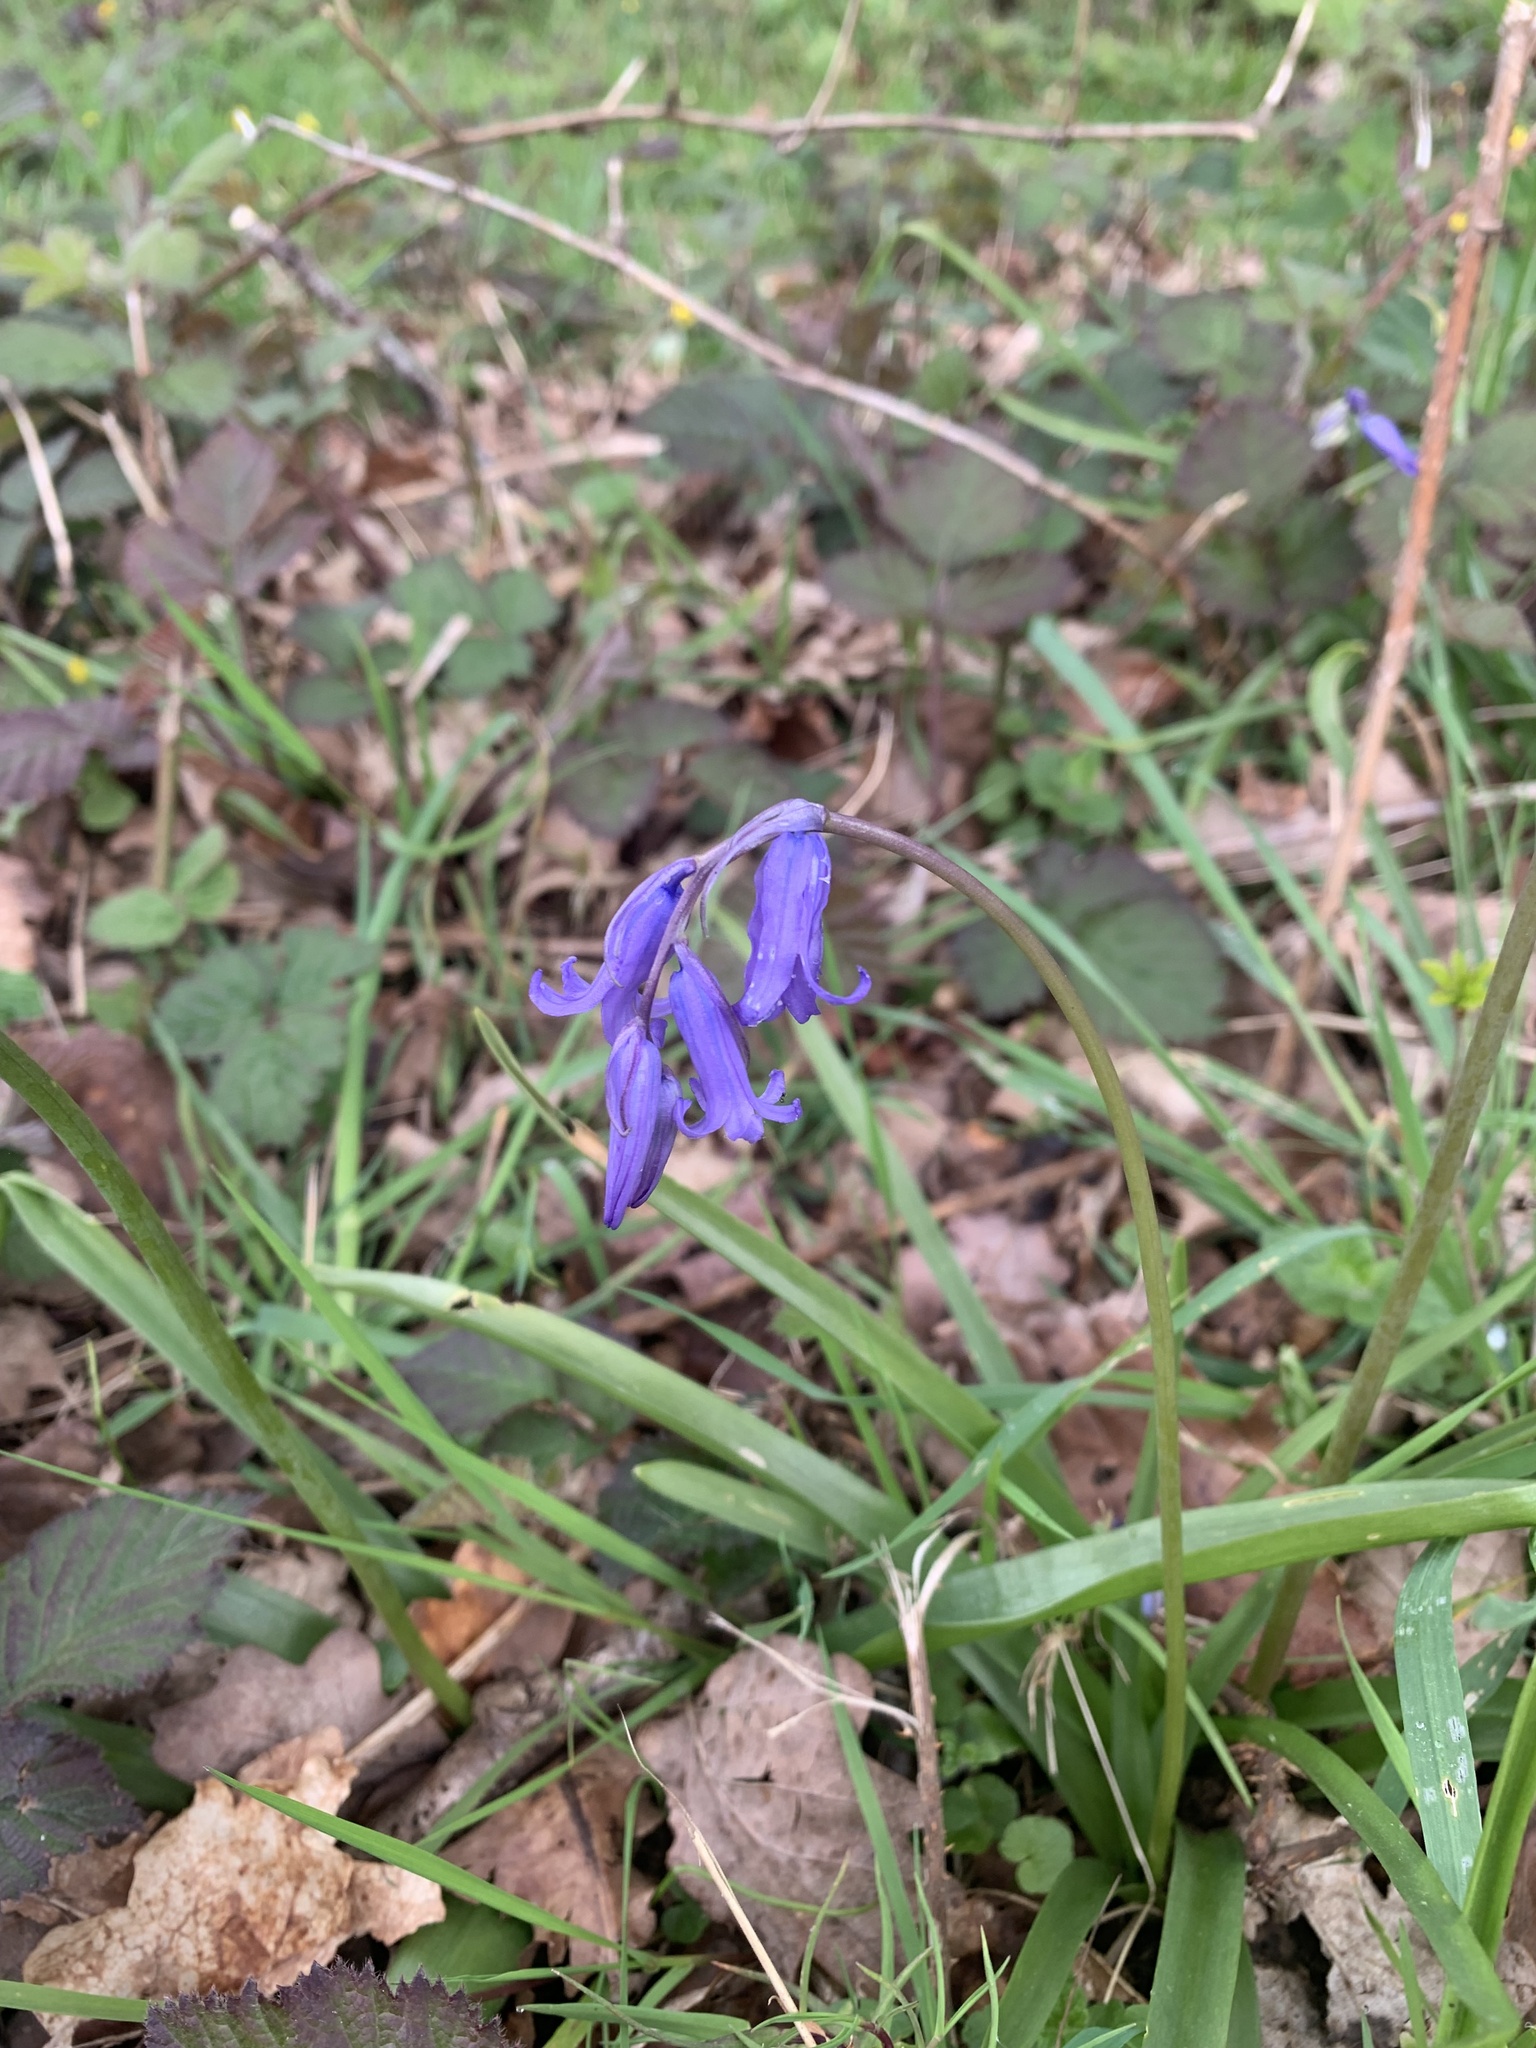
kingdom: Plantae
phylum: Tracheophyta
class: Liliopsida
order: Asparagales
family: Asparagaceae
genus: Hyacinthoides
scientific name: Hyacinthoides non-scripta
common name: Bluebell
